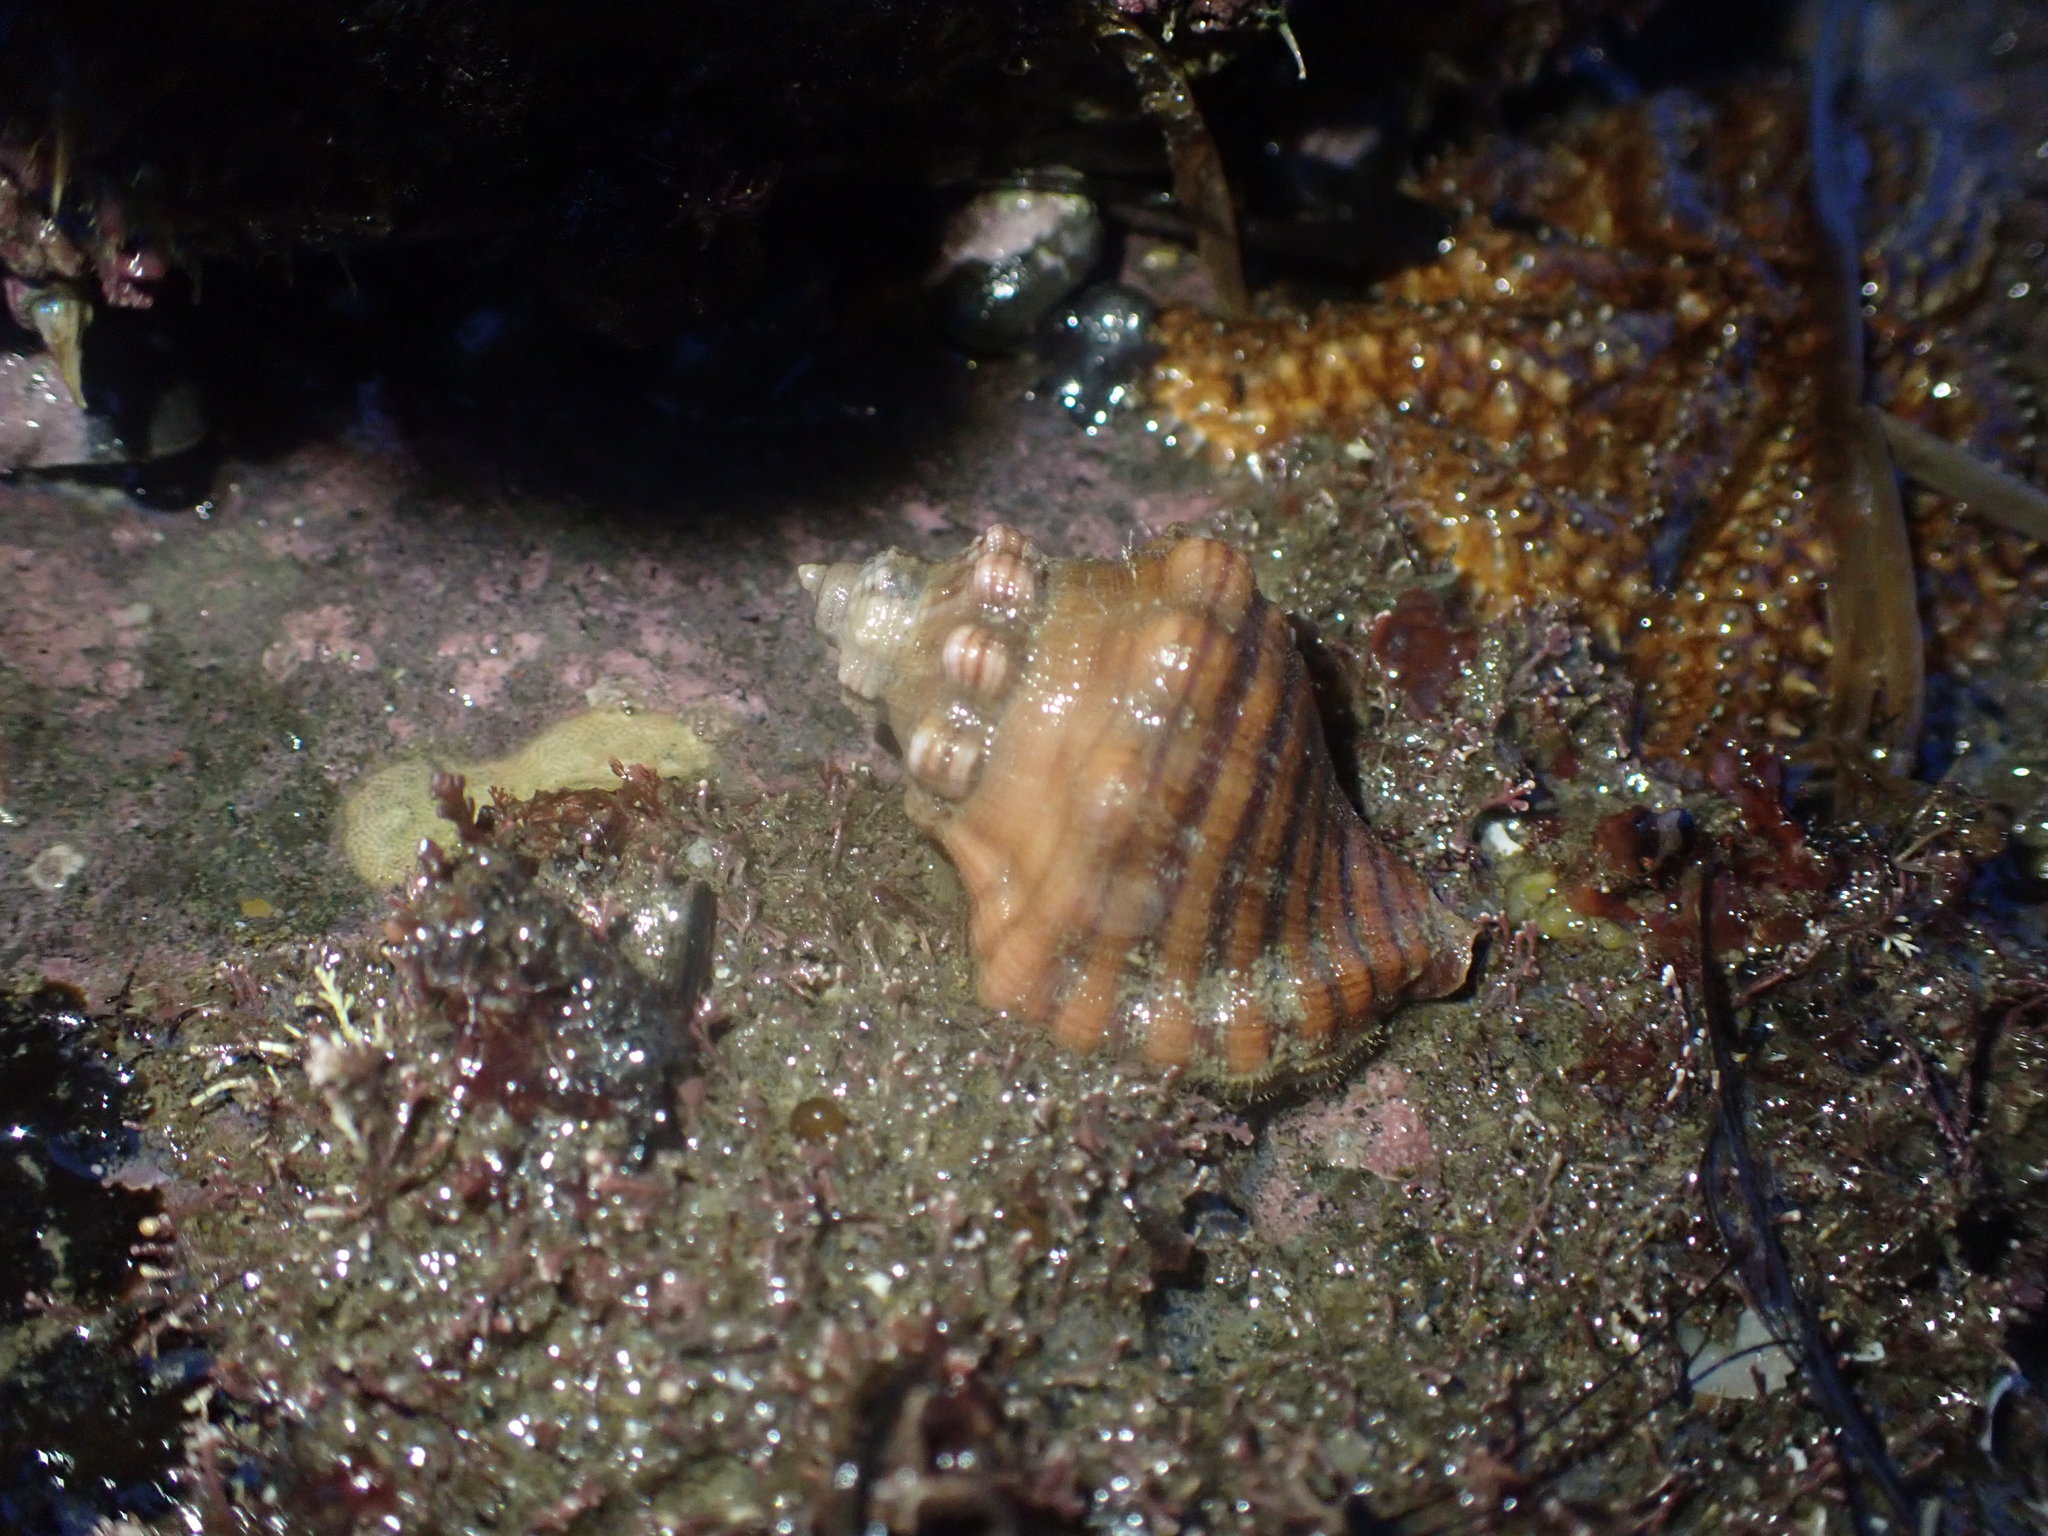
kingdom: Animalia
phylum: Mollusca
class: Gastropoda
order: Littorinimorpha
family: Cymatiidae
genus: Cabestana
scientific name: Cabestana spengleri
